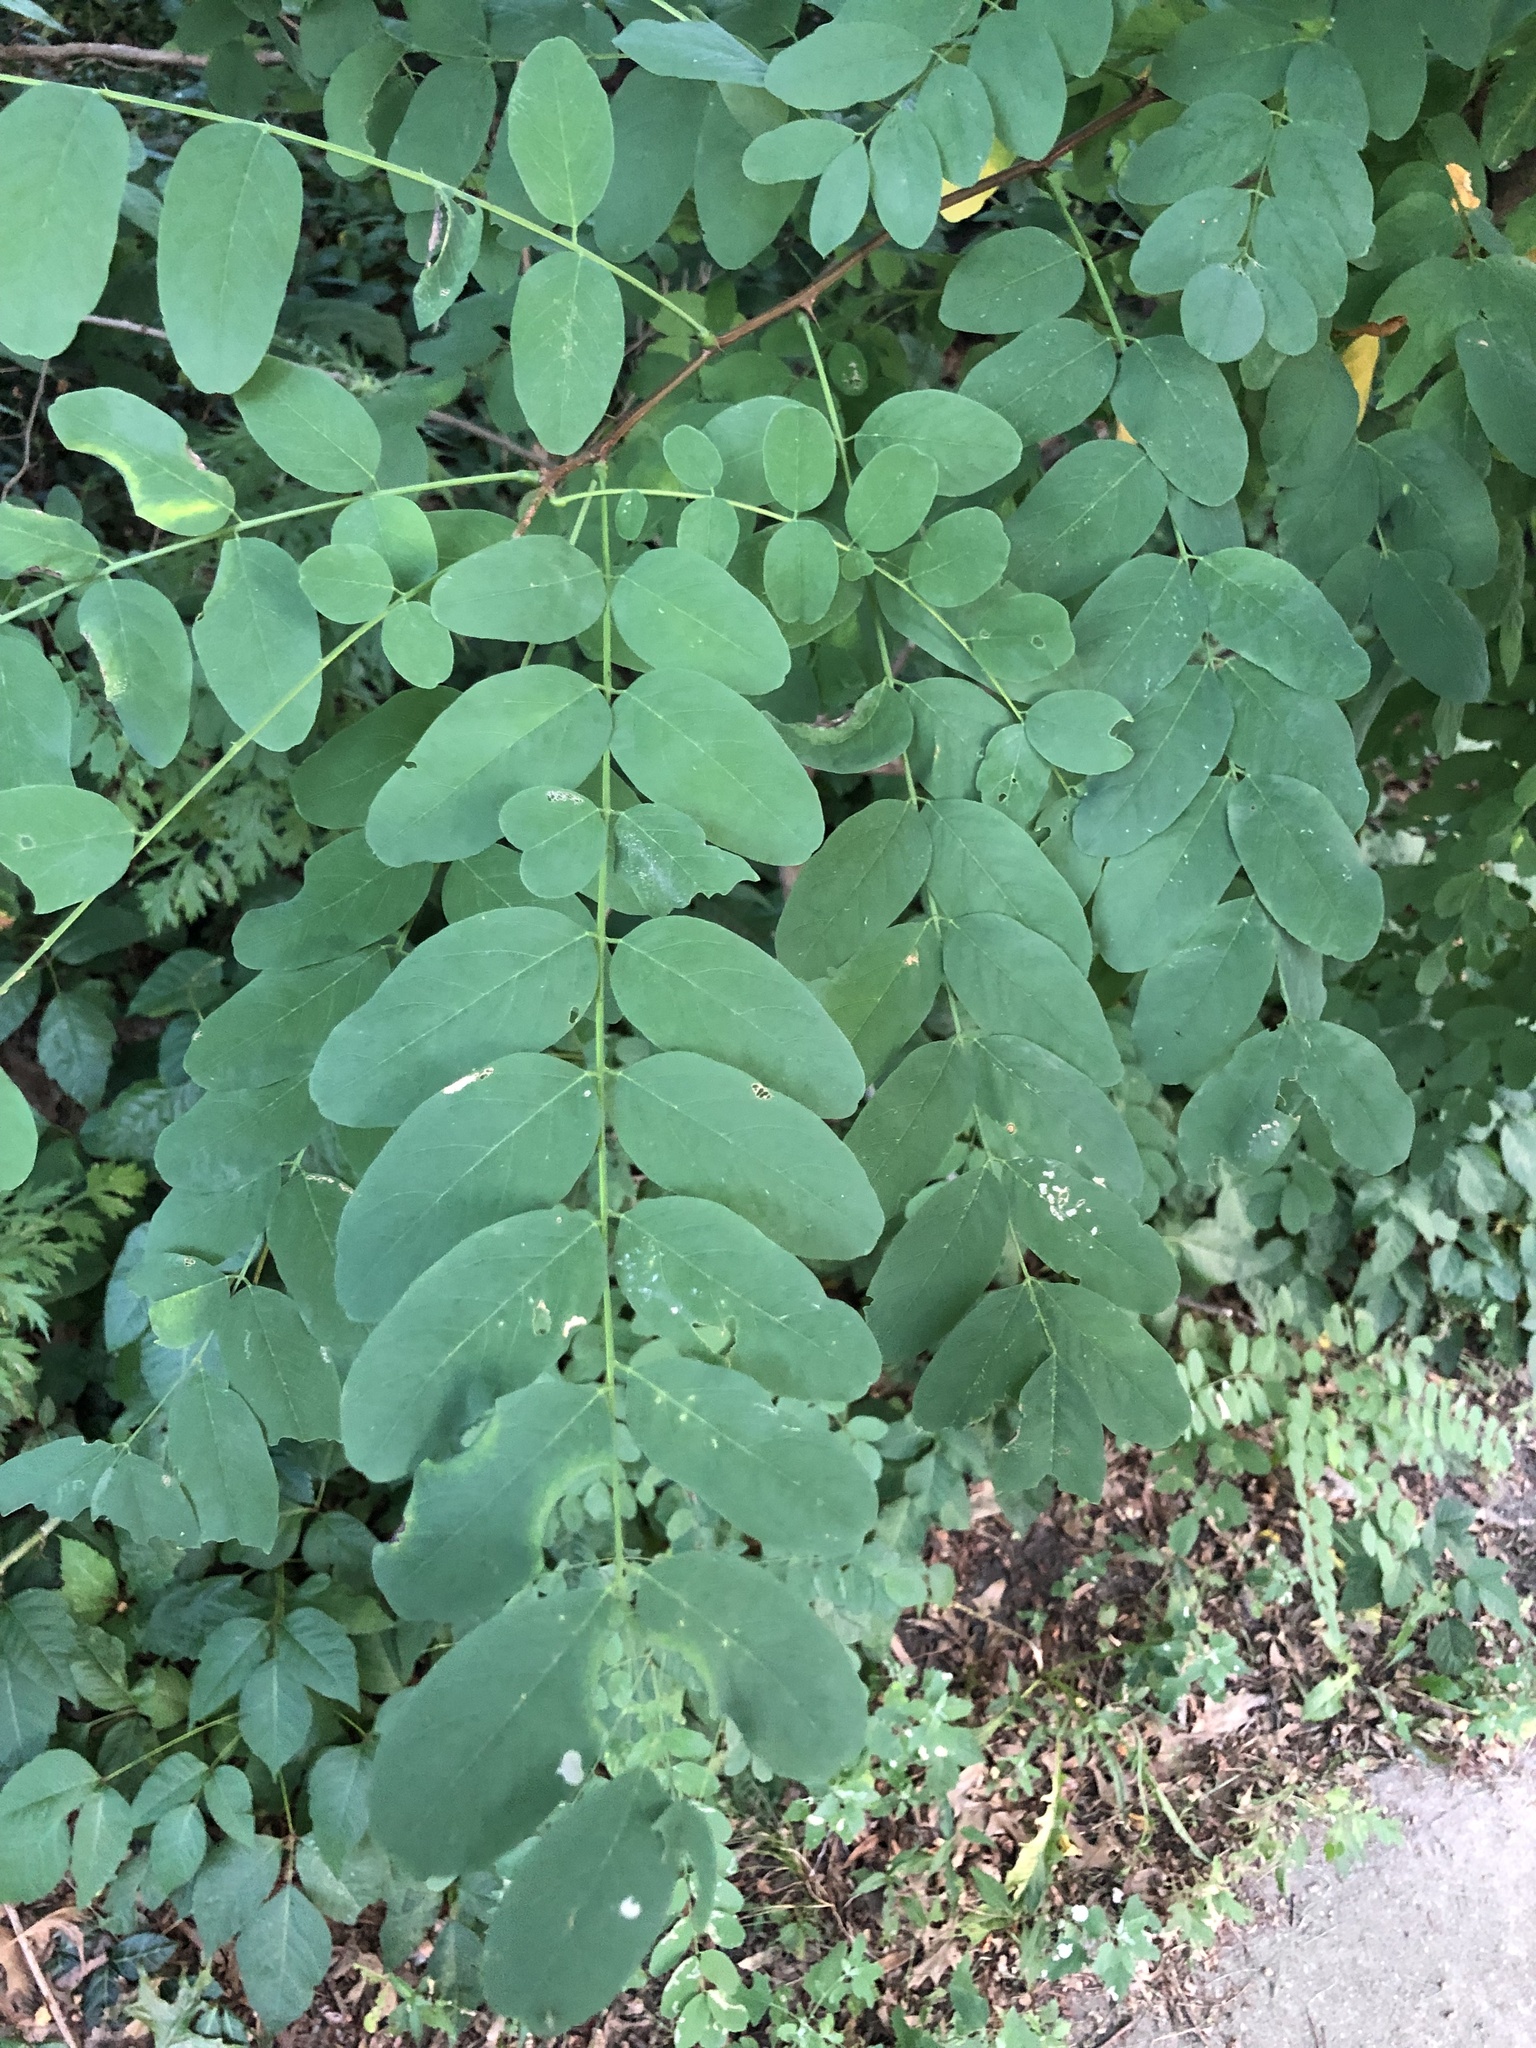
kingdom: Plantae
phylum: Tracheophyta
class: Magnoliopsida
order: Fabales
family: Fabaceae
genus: Robinia
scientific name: Robinia pseudoacacia
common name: Black locust
